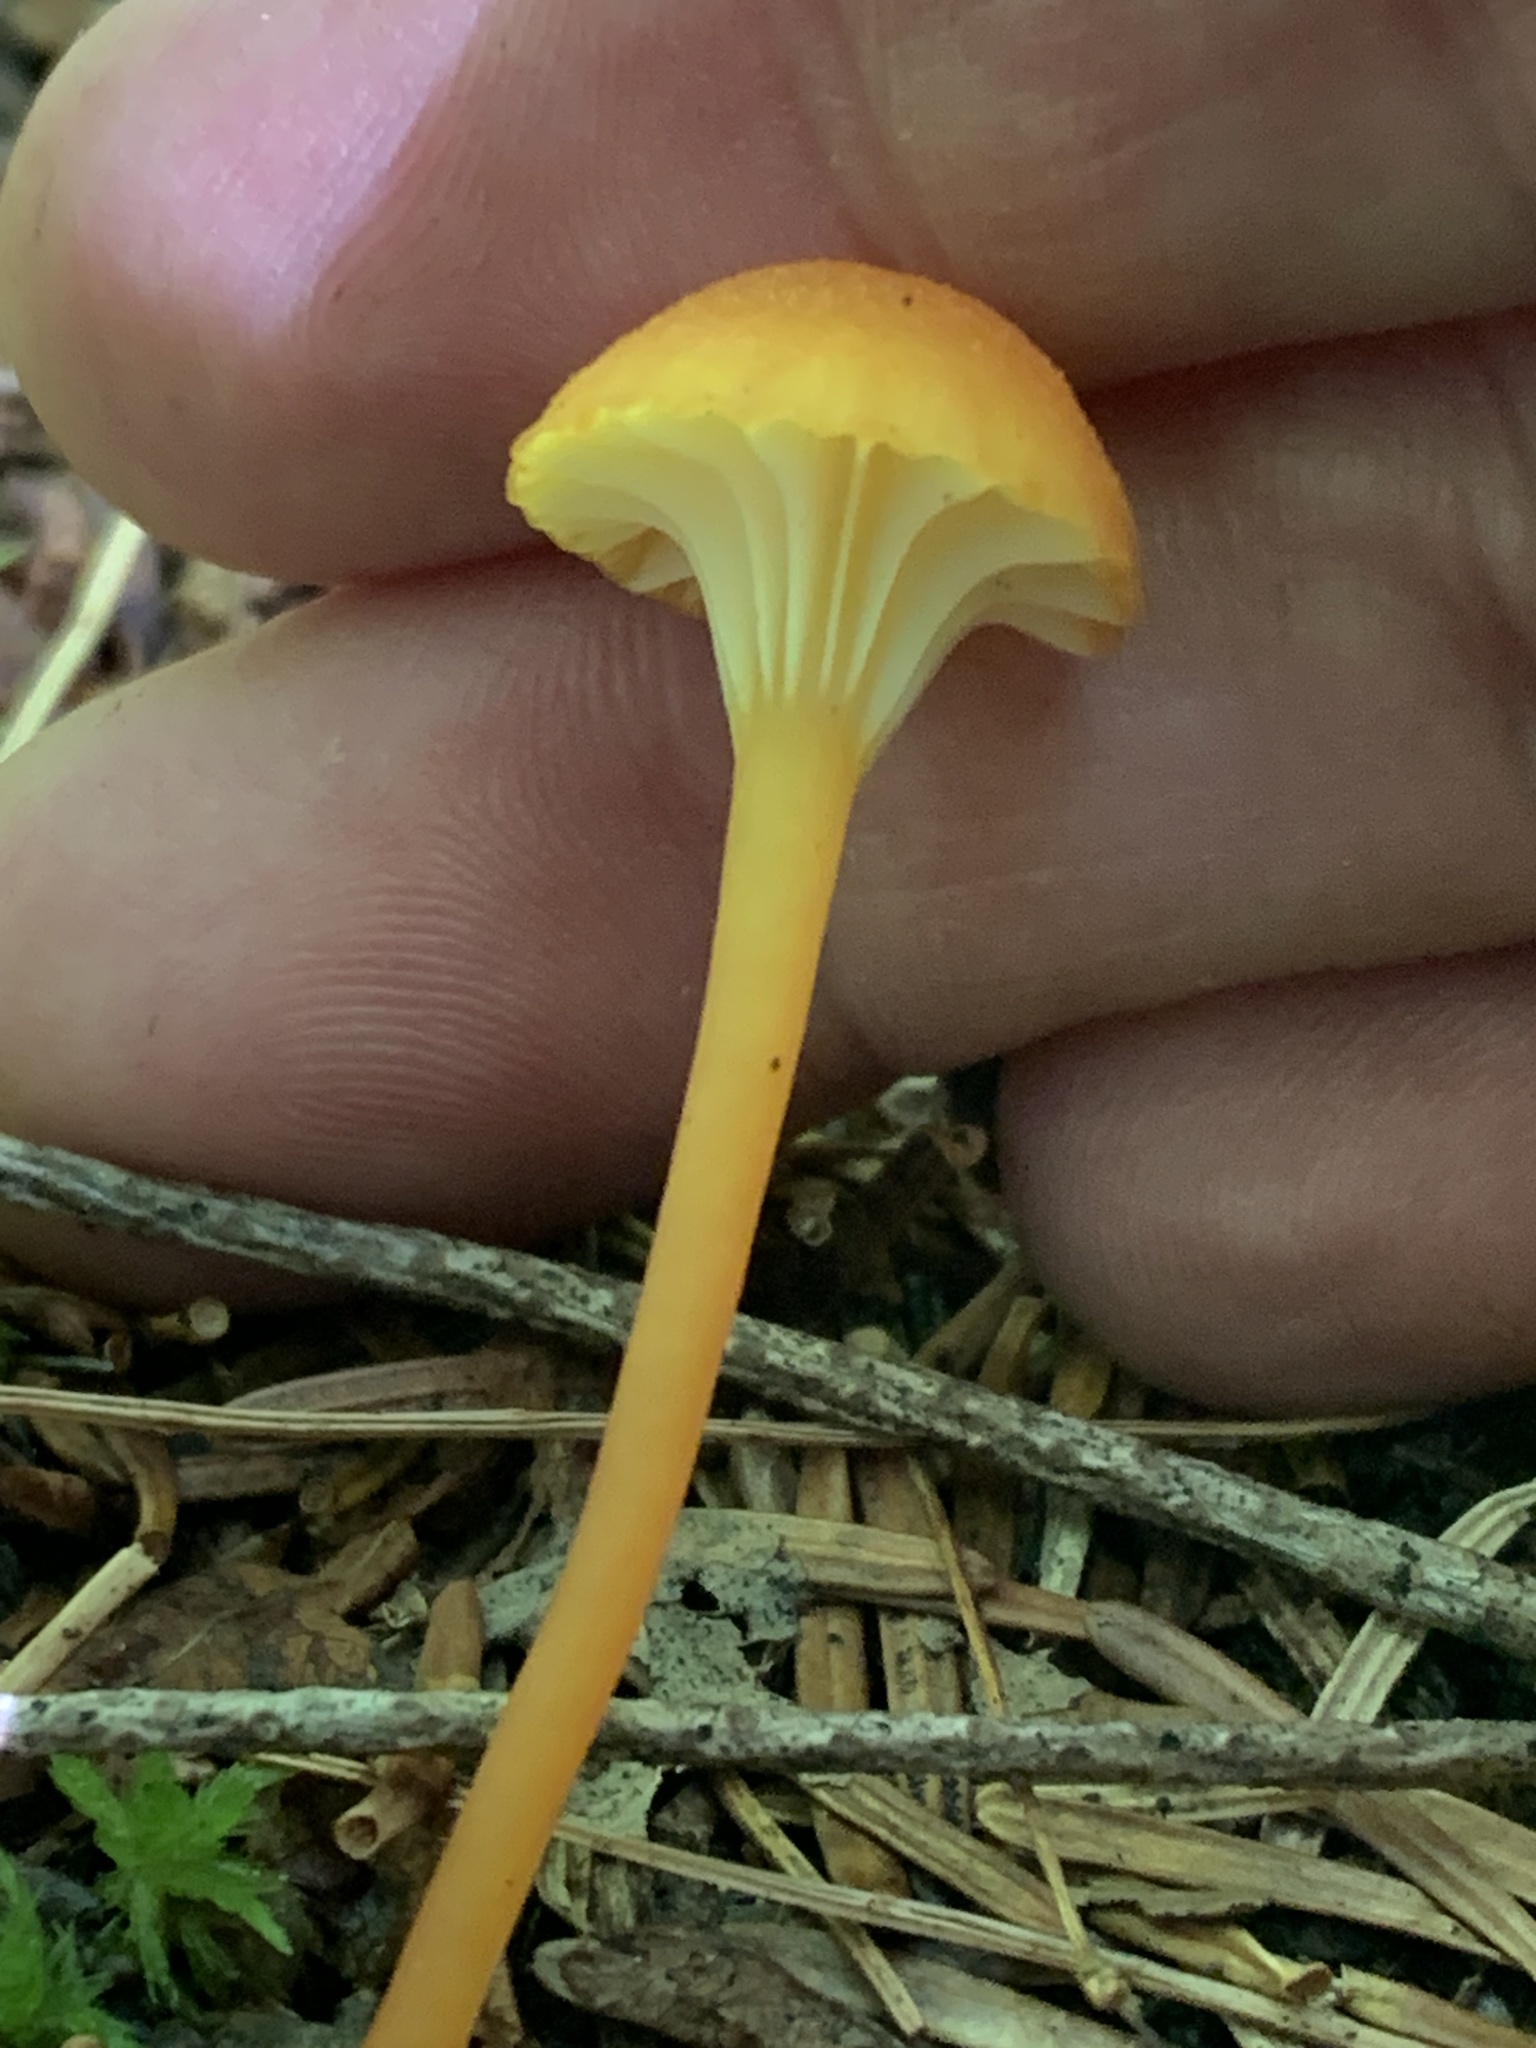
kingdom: Fungi
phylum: Basidiomycota
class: Agaricomycetes
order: Agaricales
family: Hygrophoraceae
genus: Hygrocybe
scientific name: Hygrocybe cantharellus
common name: Goblet waxcap
